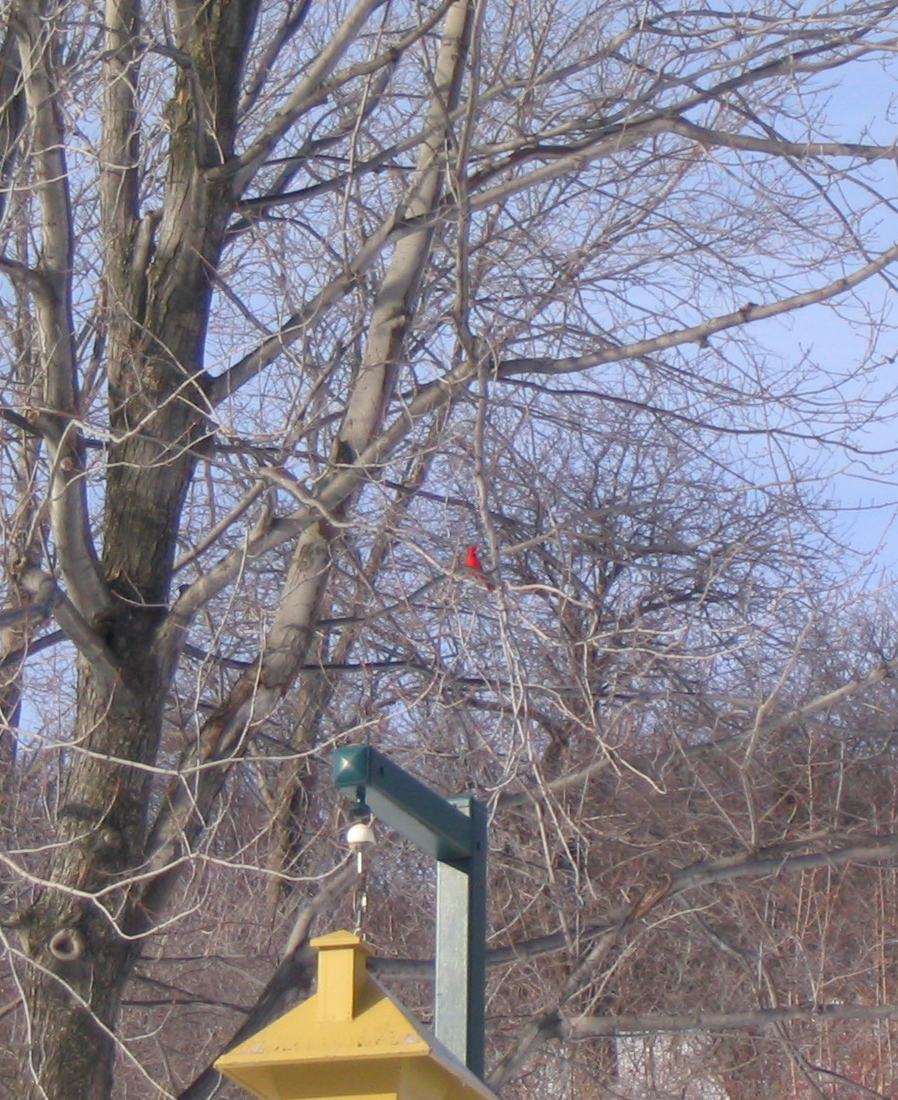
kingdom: Animalia
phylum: Chordata
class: Aves
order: Passeriformes
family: Cardinalidae
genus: Cardinalis
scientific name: Cardinalis cardinalis
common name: Northern cardinal
